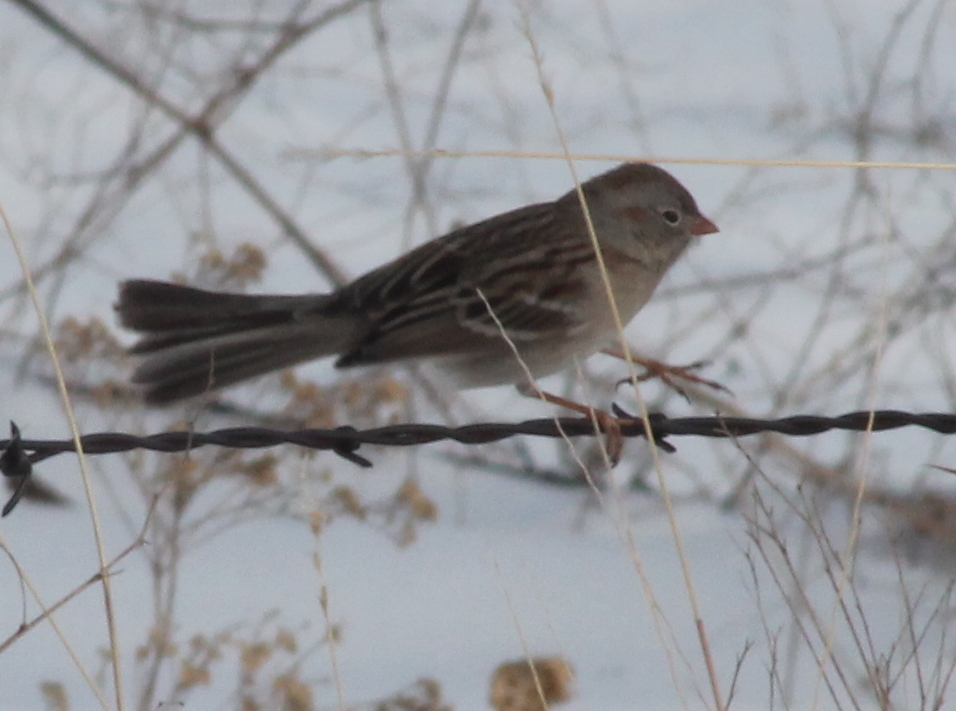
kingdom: Animalia
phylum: Chordata
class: Aves
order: Passeriformes
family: Passerellidae
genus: Spizella
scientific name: Spizella pusilla
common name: Field sparrow
